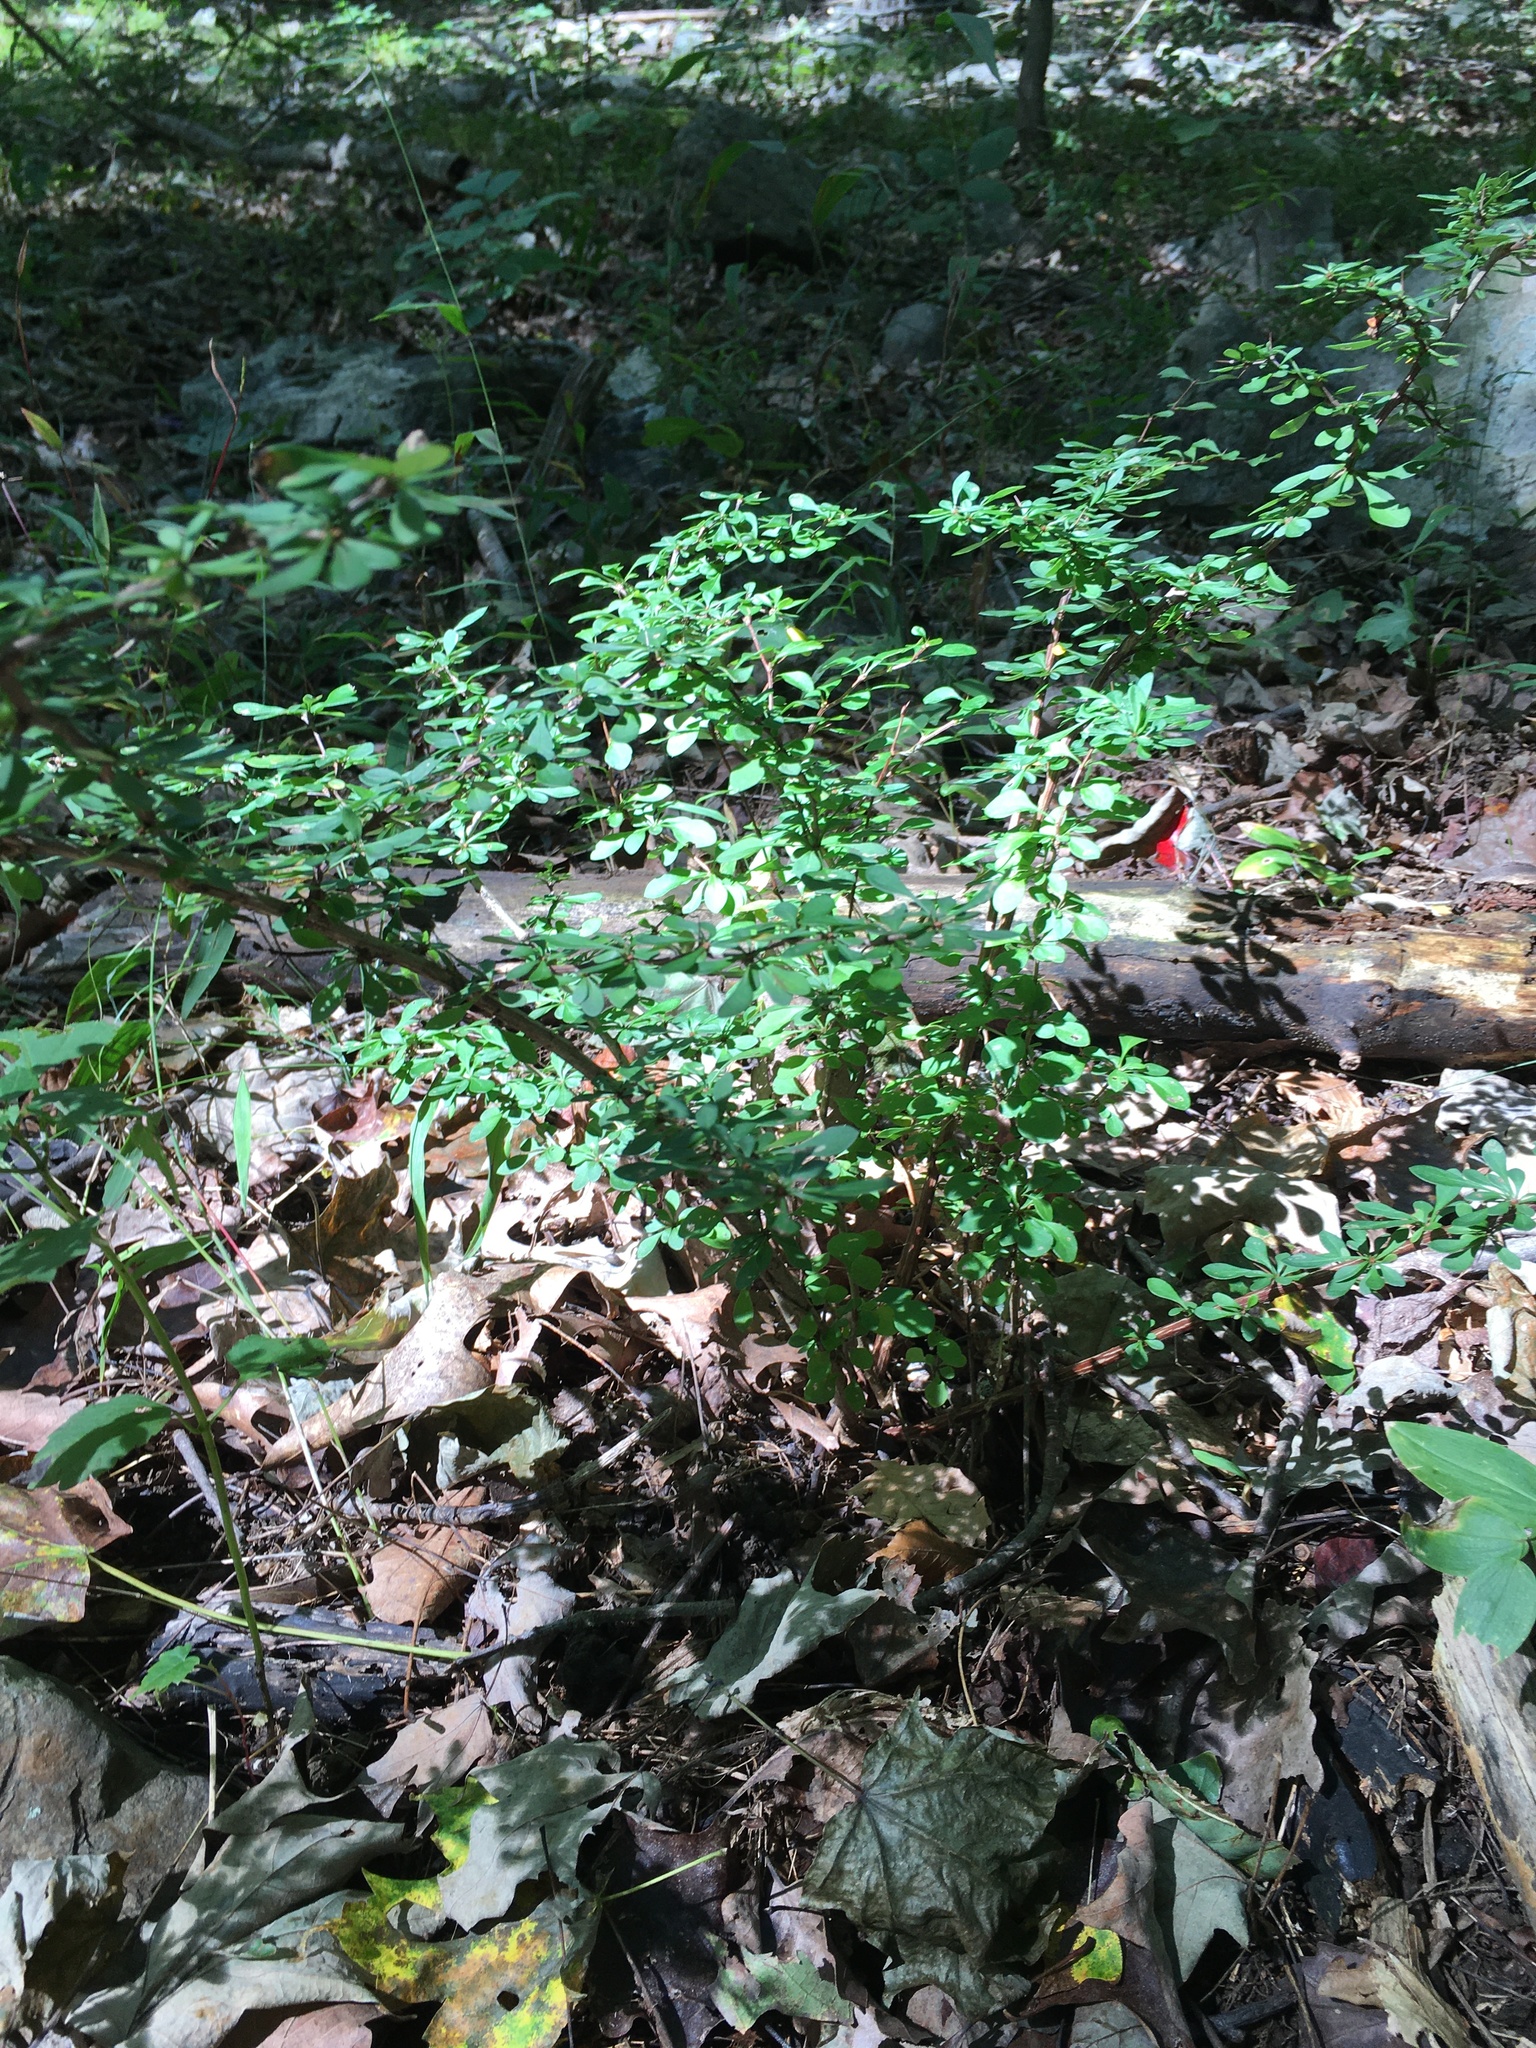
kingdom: Plantae
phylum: Tracheophyta
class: Magnoliopsida
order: Ranunculales
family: Berberidaceae
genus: Berberis
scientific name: Berberis thunbergii
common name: Japanese barberry
